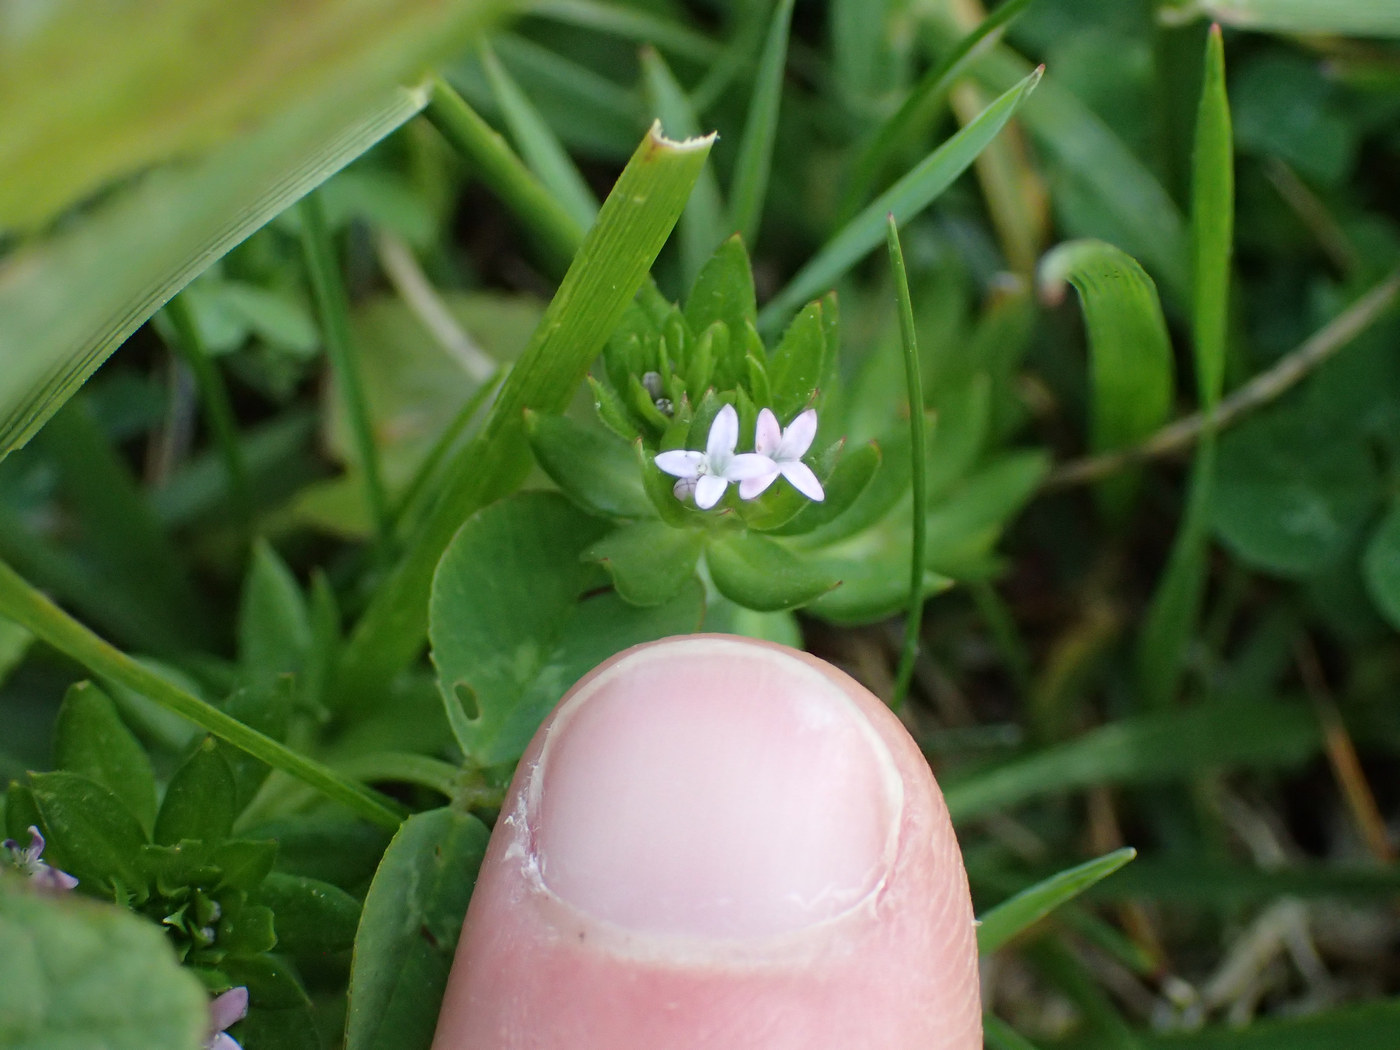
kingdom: Plantae
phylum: Tracheophyta
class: Magnoliopsida
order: Gentianales
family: Rubiaceae
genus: Sherardia
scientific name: Sherardia arvensis
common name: Field madder
